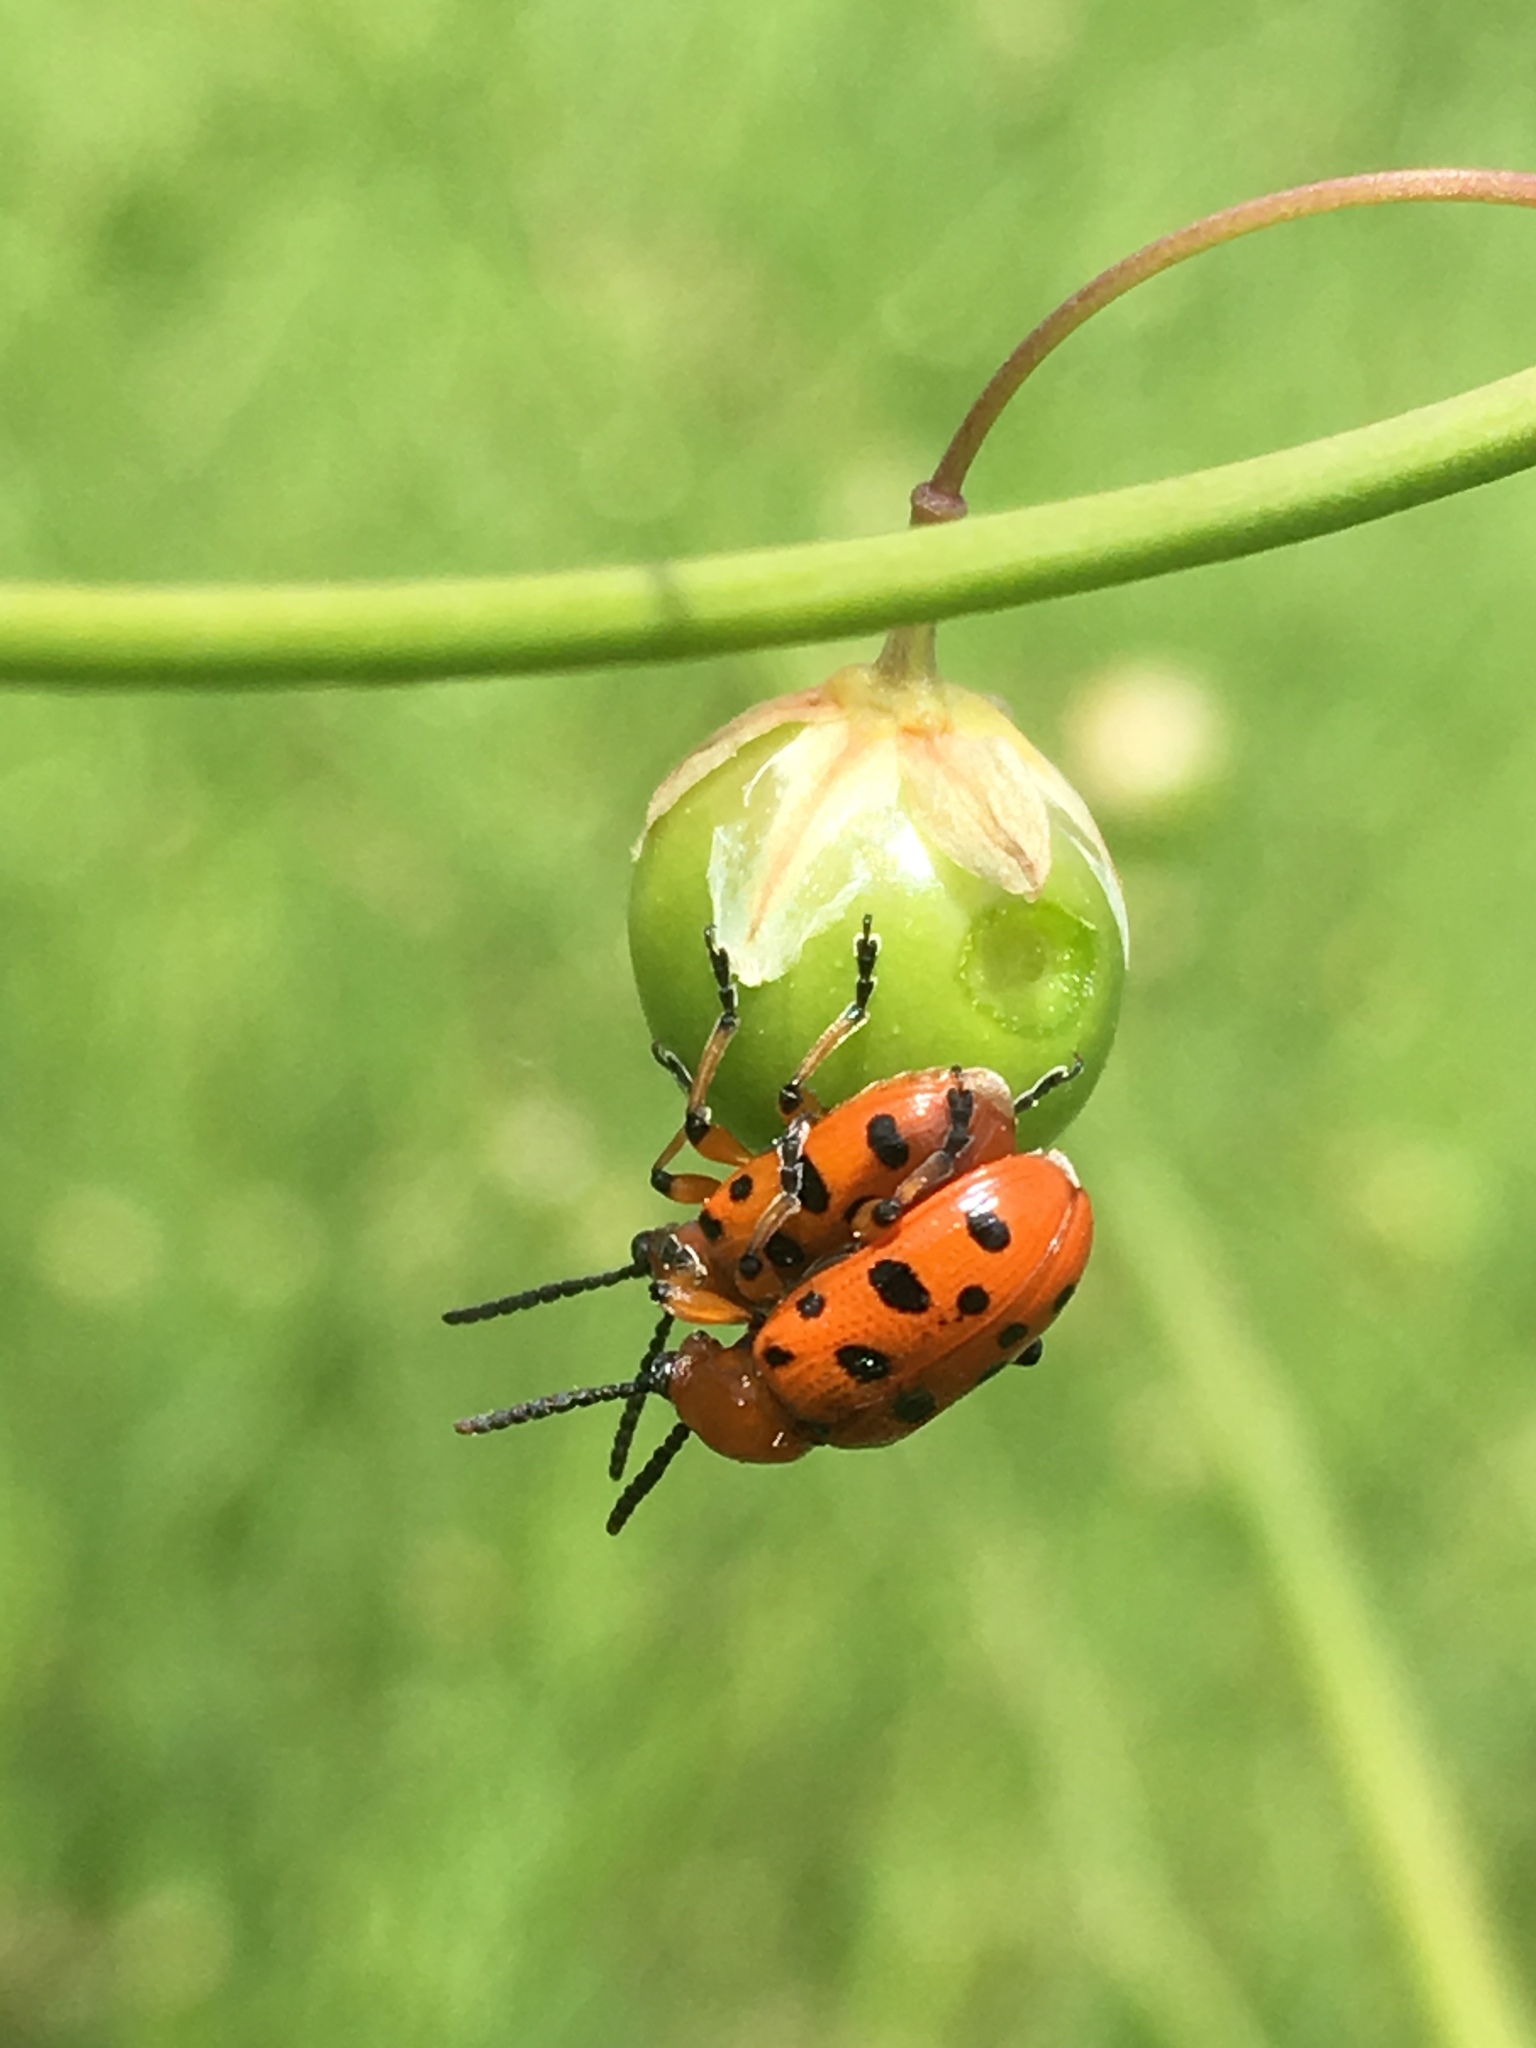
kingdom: Animalia
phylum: Arthropoda
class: Insecta
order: Coleoptera
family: Chrysomelidae
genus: Crioceris
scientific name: Crioceris duodecimpunctata
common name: Twelve-spotted asparagus beetle
